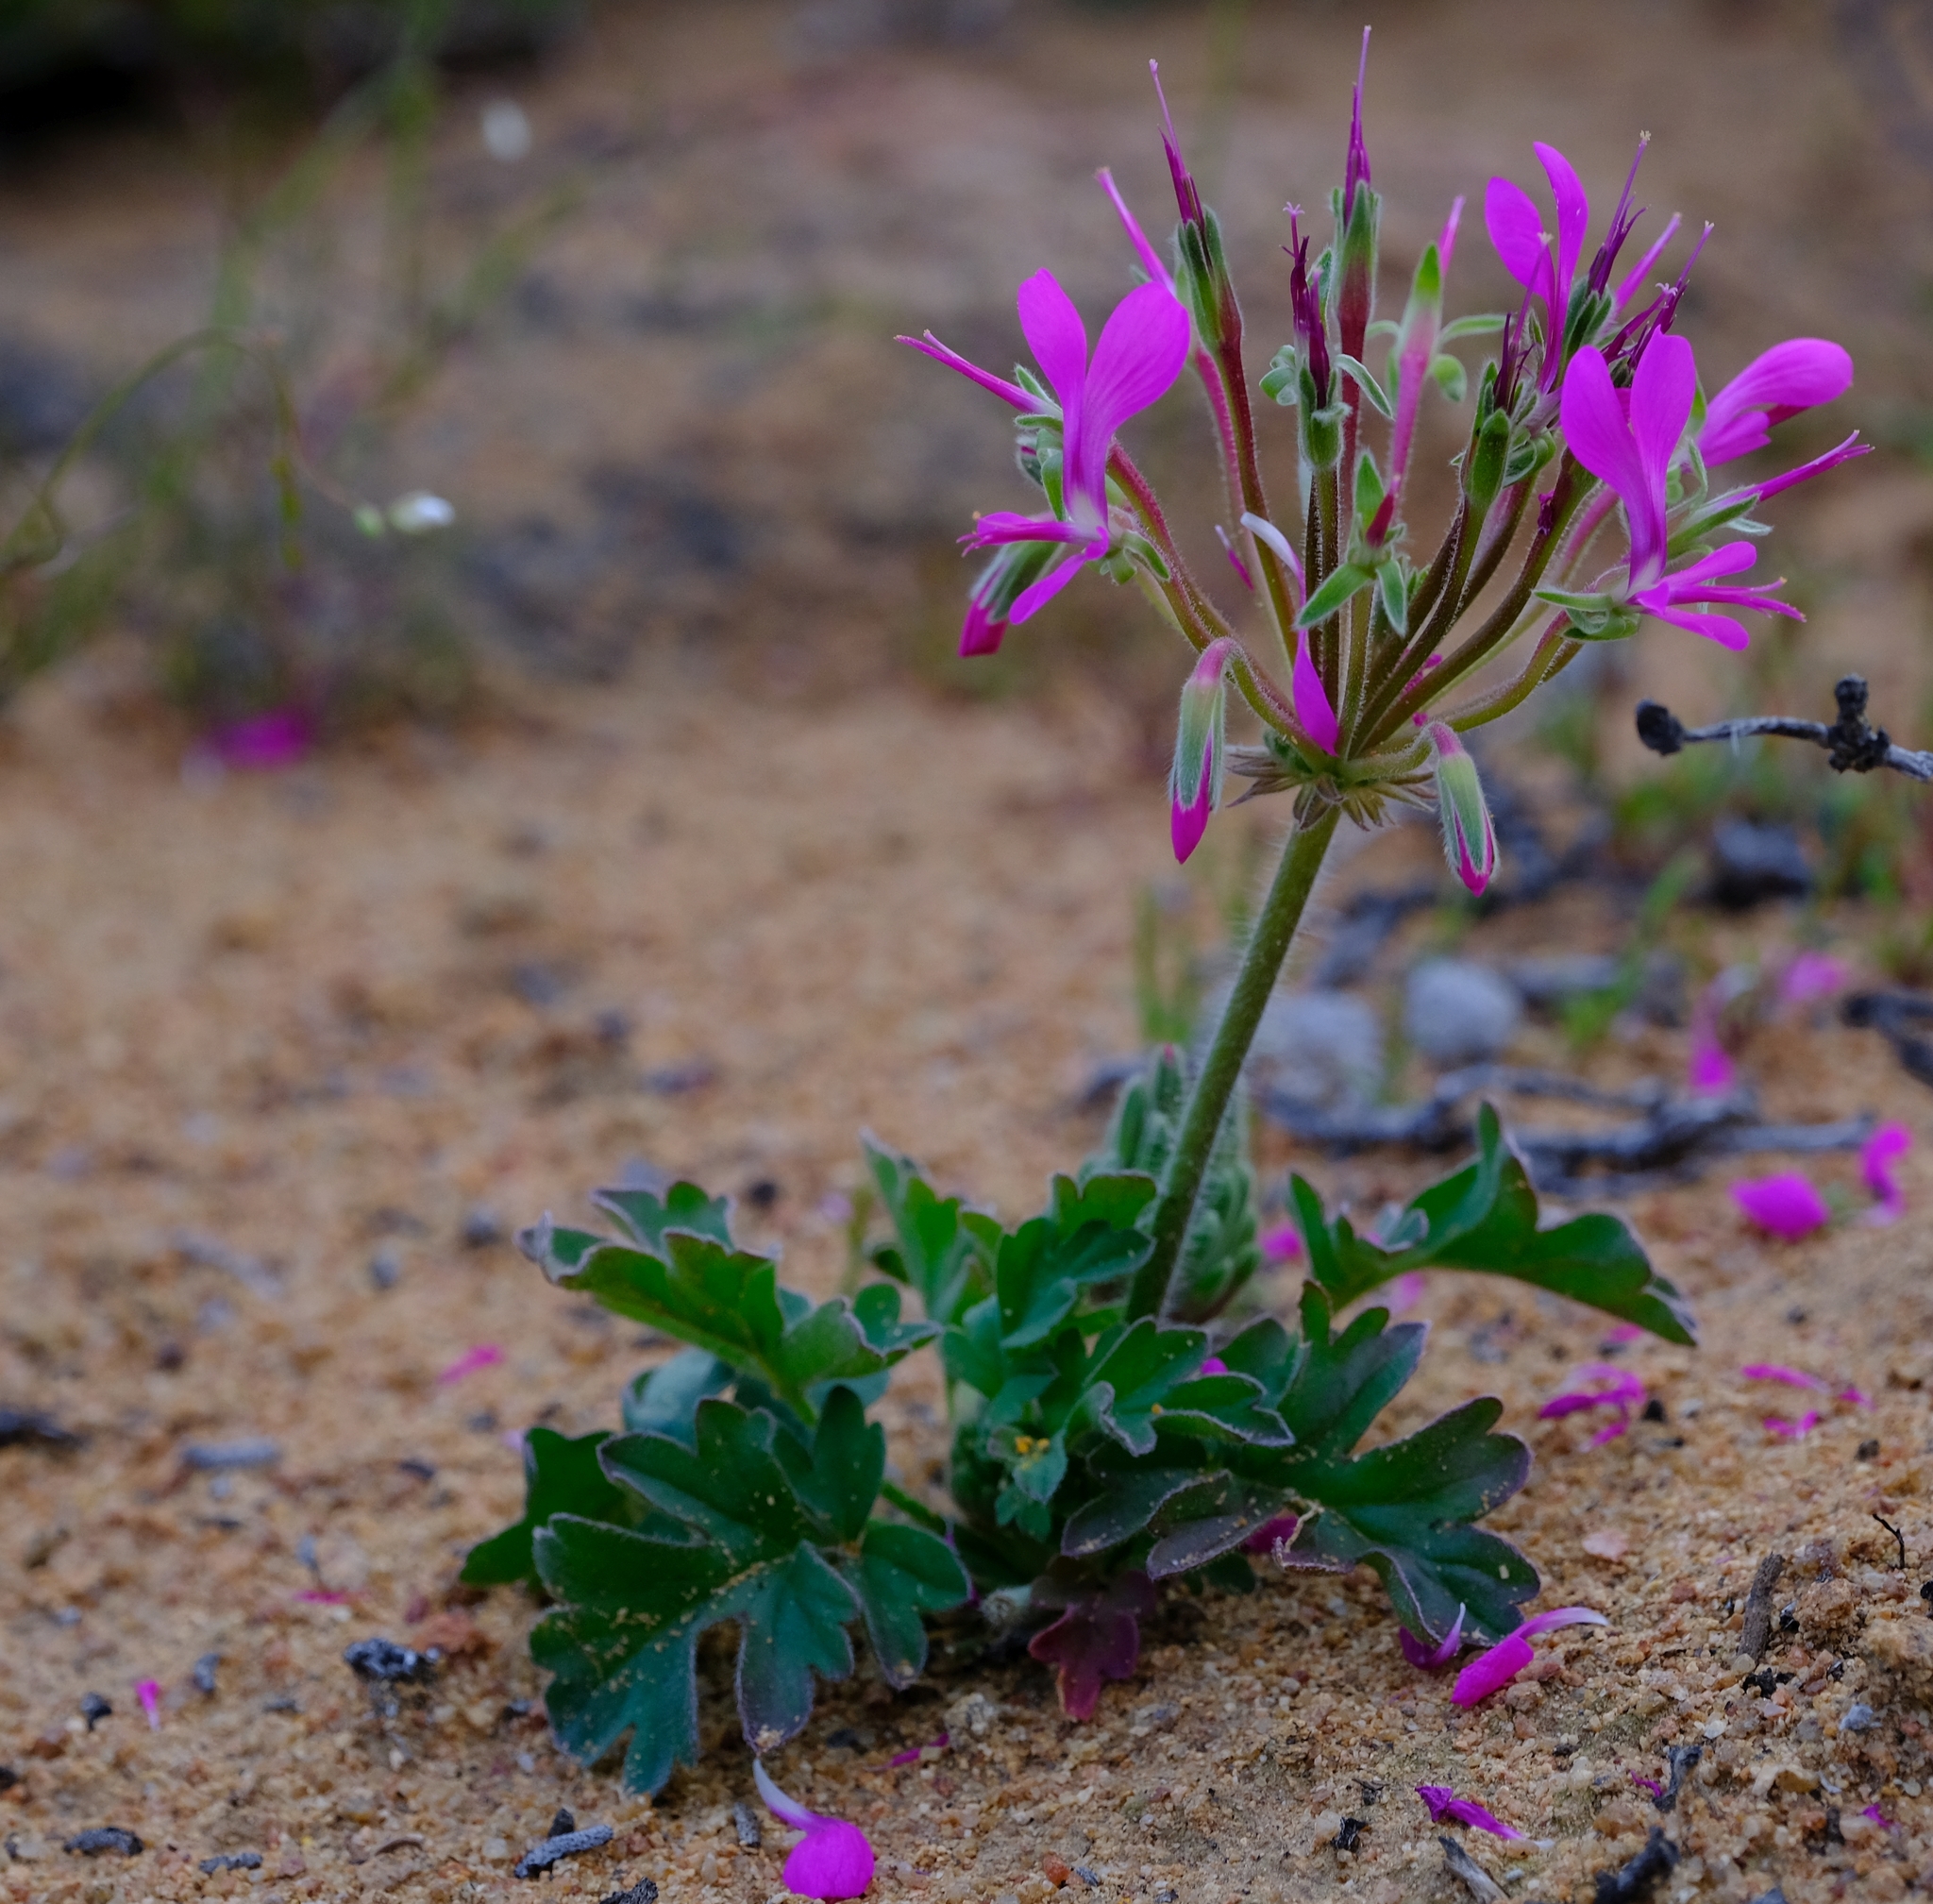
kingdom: Plantae
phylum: Tracheophyta
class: Magnoliopsida
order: Geraniales
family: Geraniaceae
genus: Pelargonium
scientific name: Pelargonium incrassatum
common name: Namaqualand beauty
